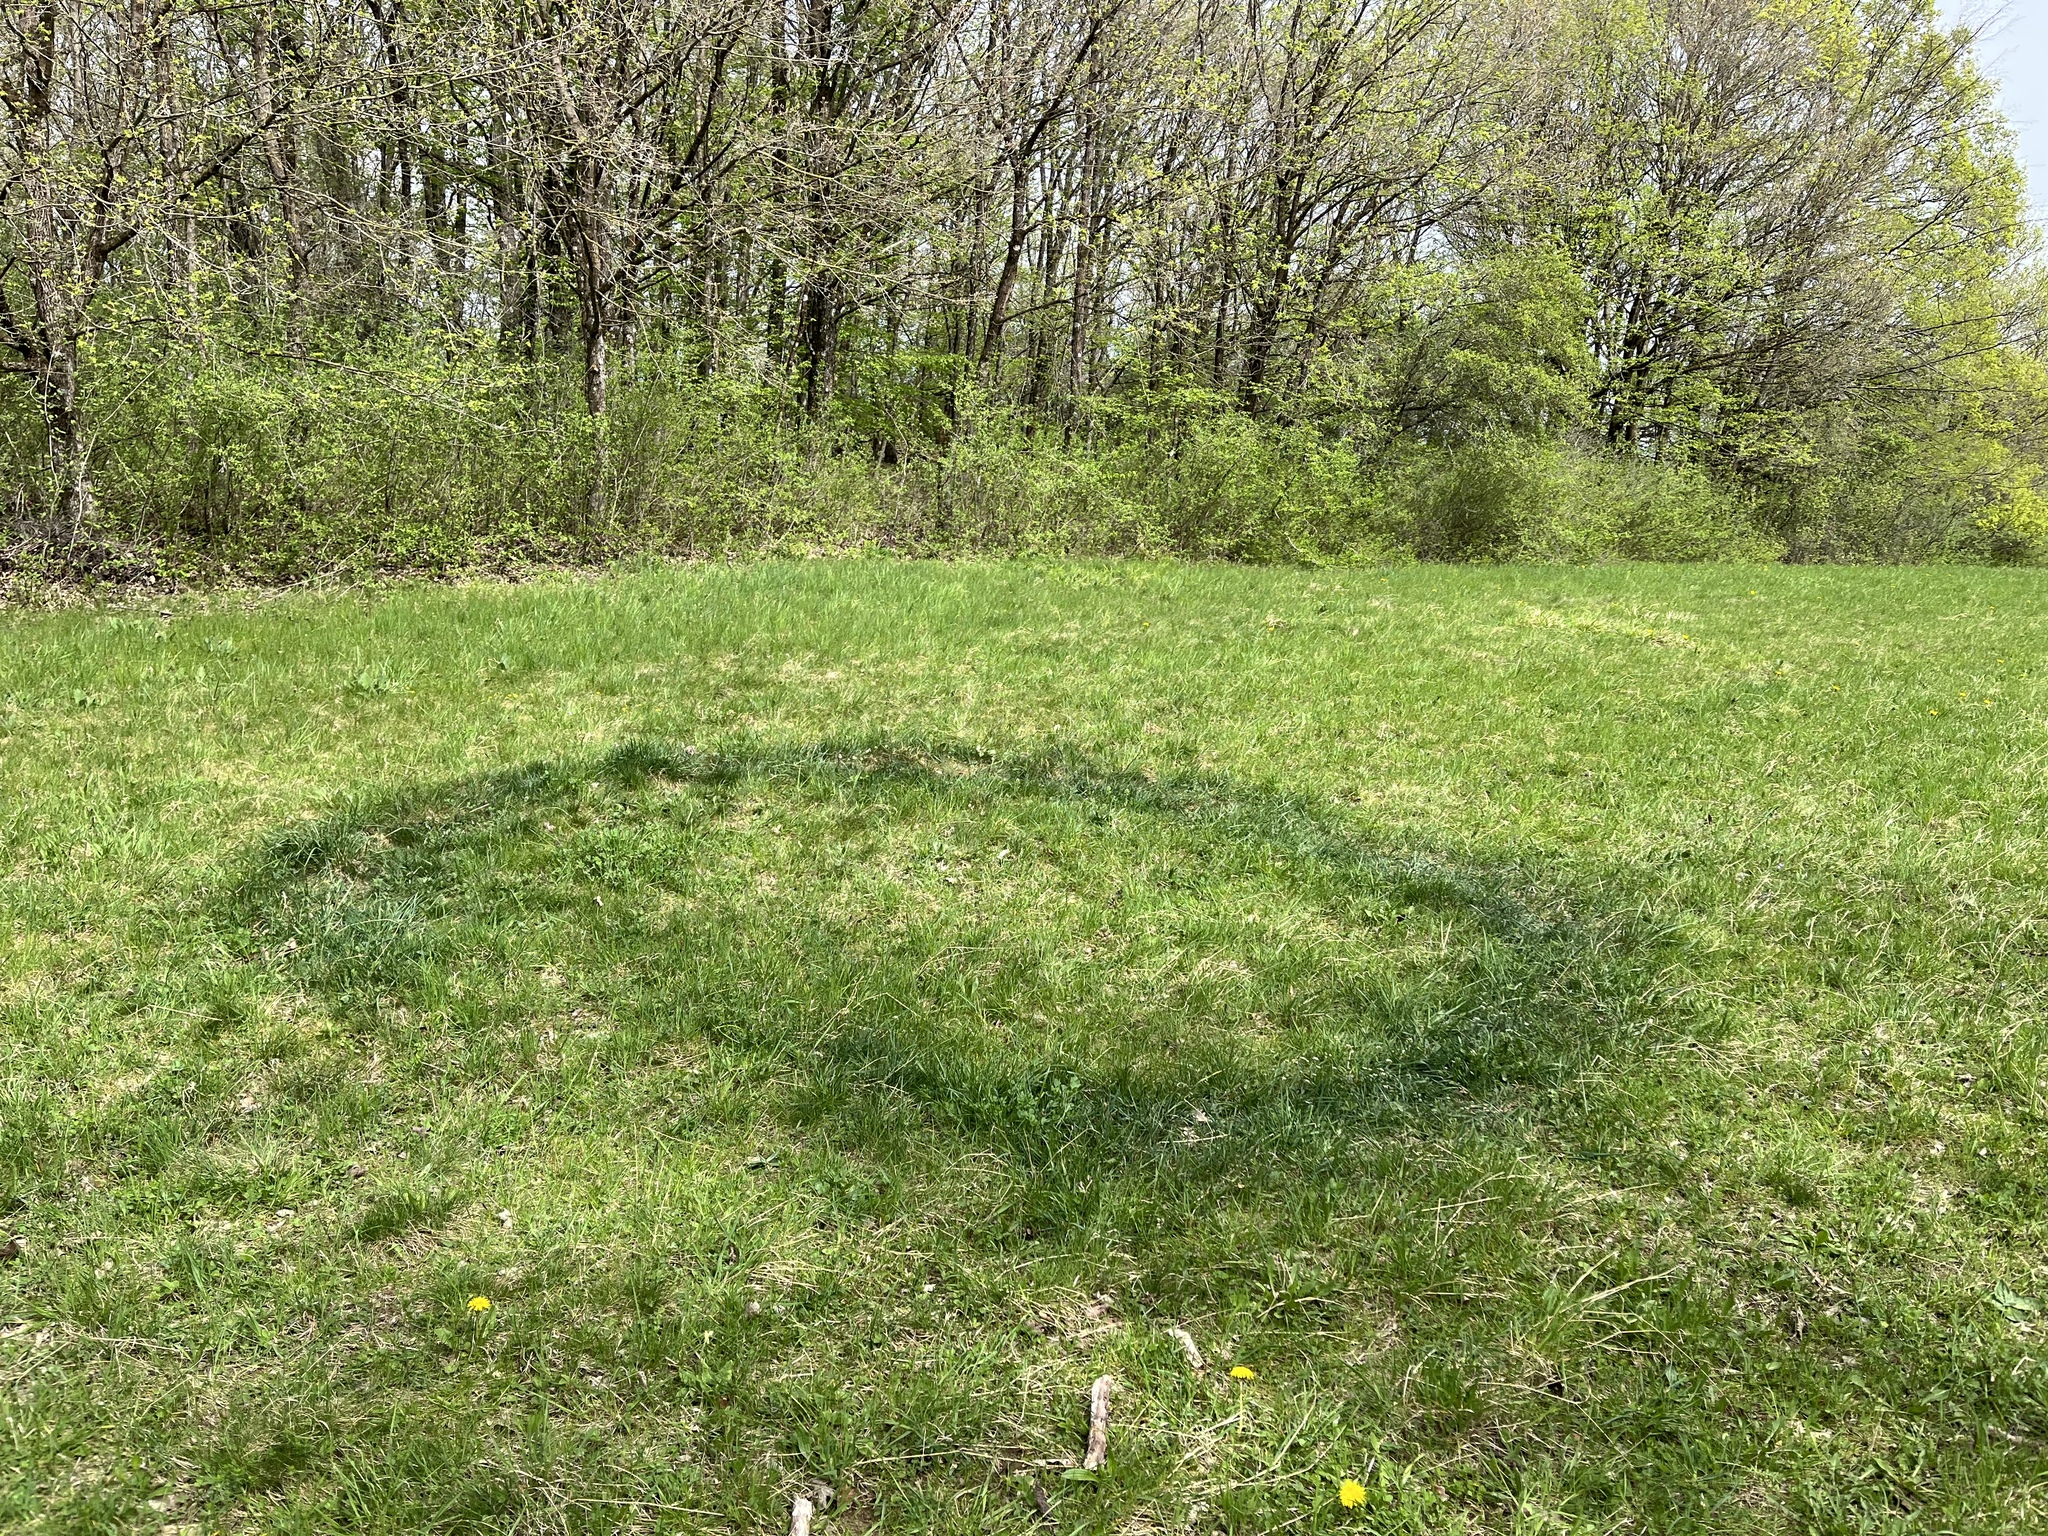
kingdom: Fungi
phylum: Basidiomycota
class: Agaricomycetes
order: Agaricales
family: Lyophyllaceae
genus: Calocybe
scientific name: Calocybe gambosa
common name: St. george's mushroom
